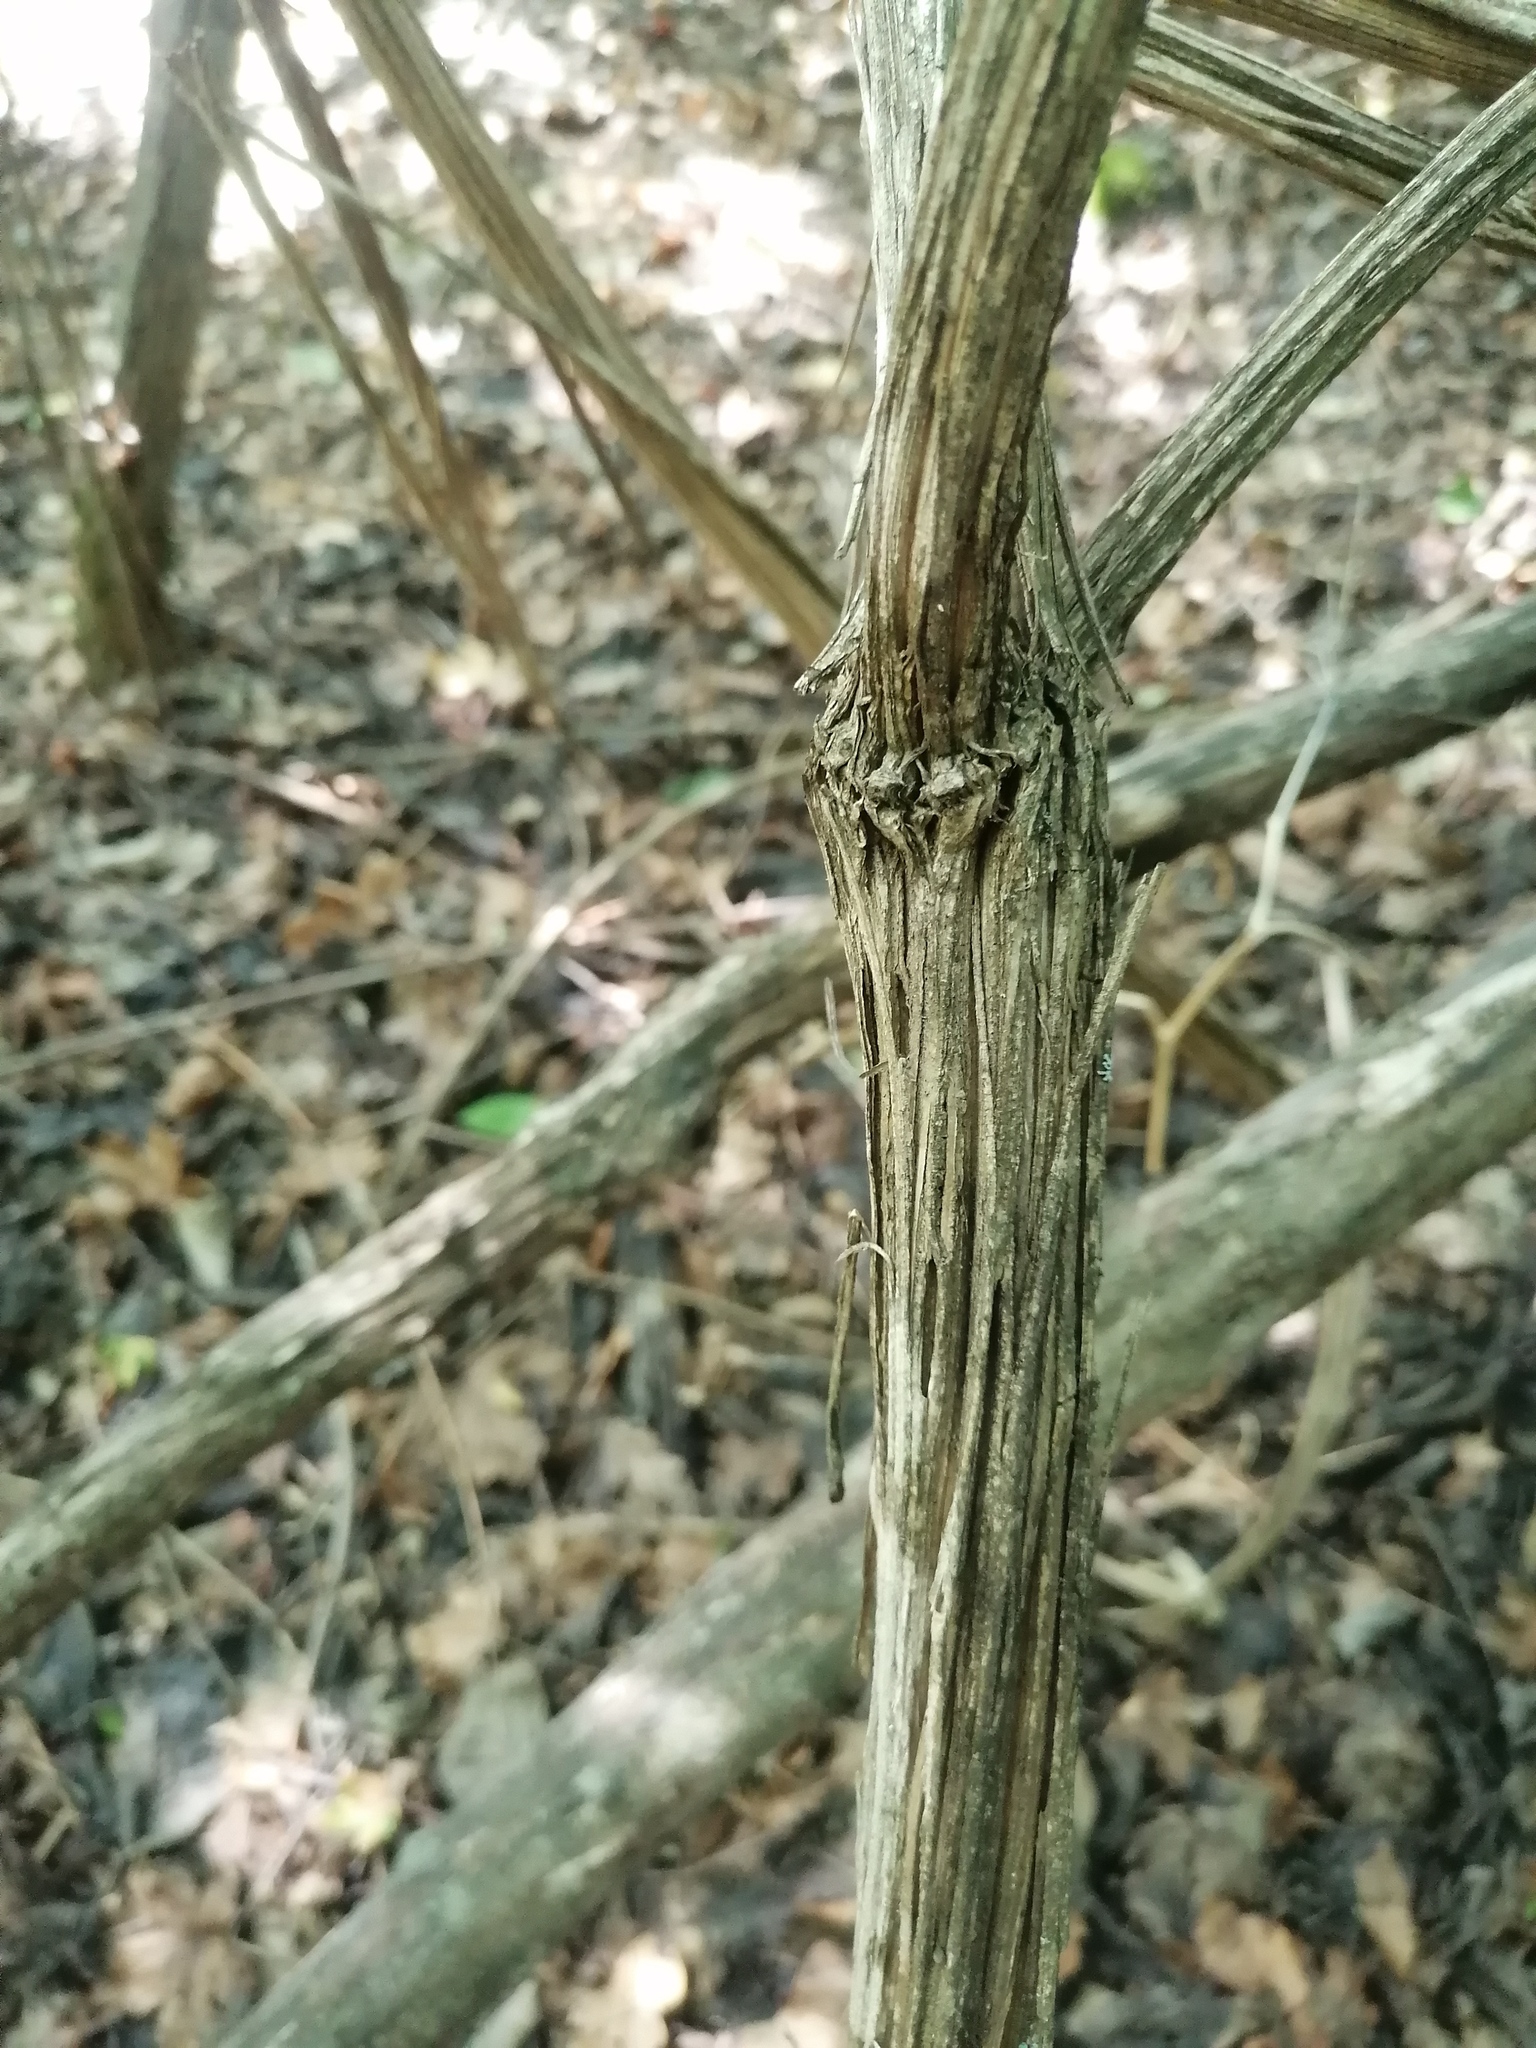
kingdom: Plantae
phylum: Tracheophyta
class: Magnoliopsida
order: Ranunculales
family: Ranunculaceae
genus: Clematis
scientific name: Clematis vitalba
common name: Evergreen clematis
